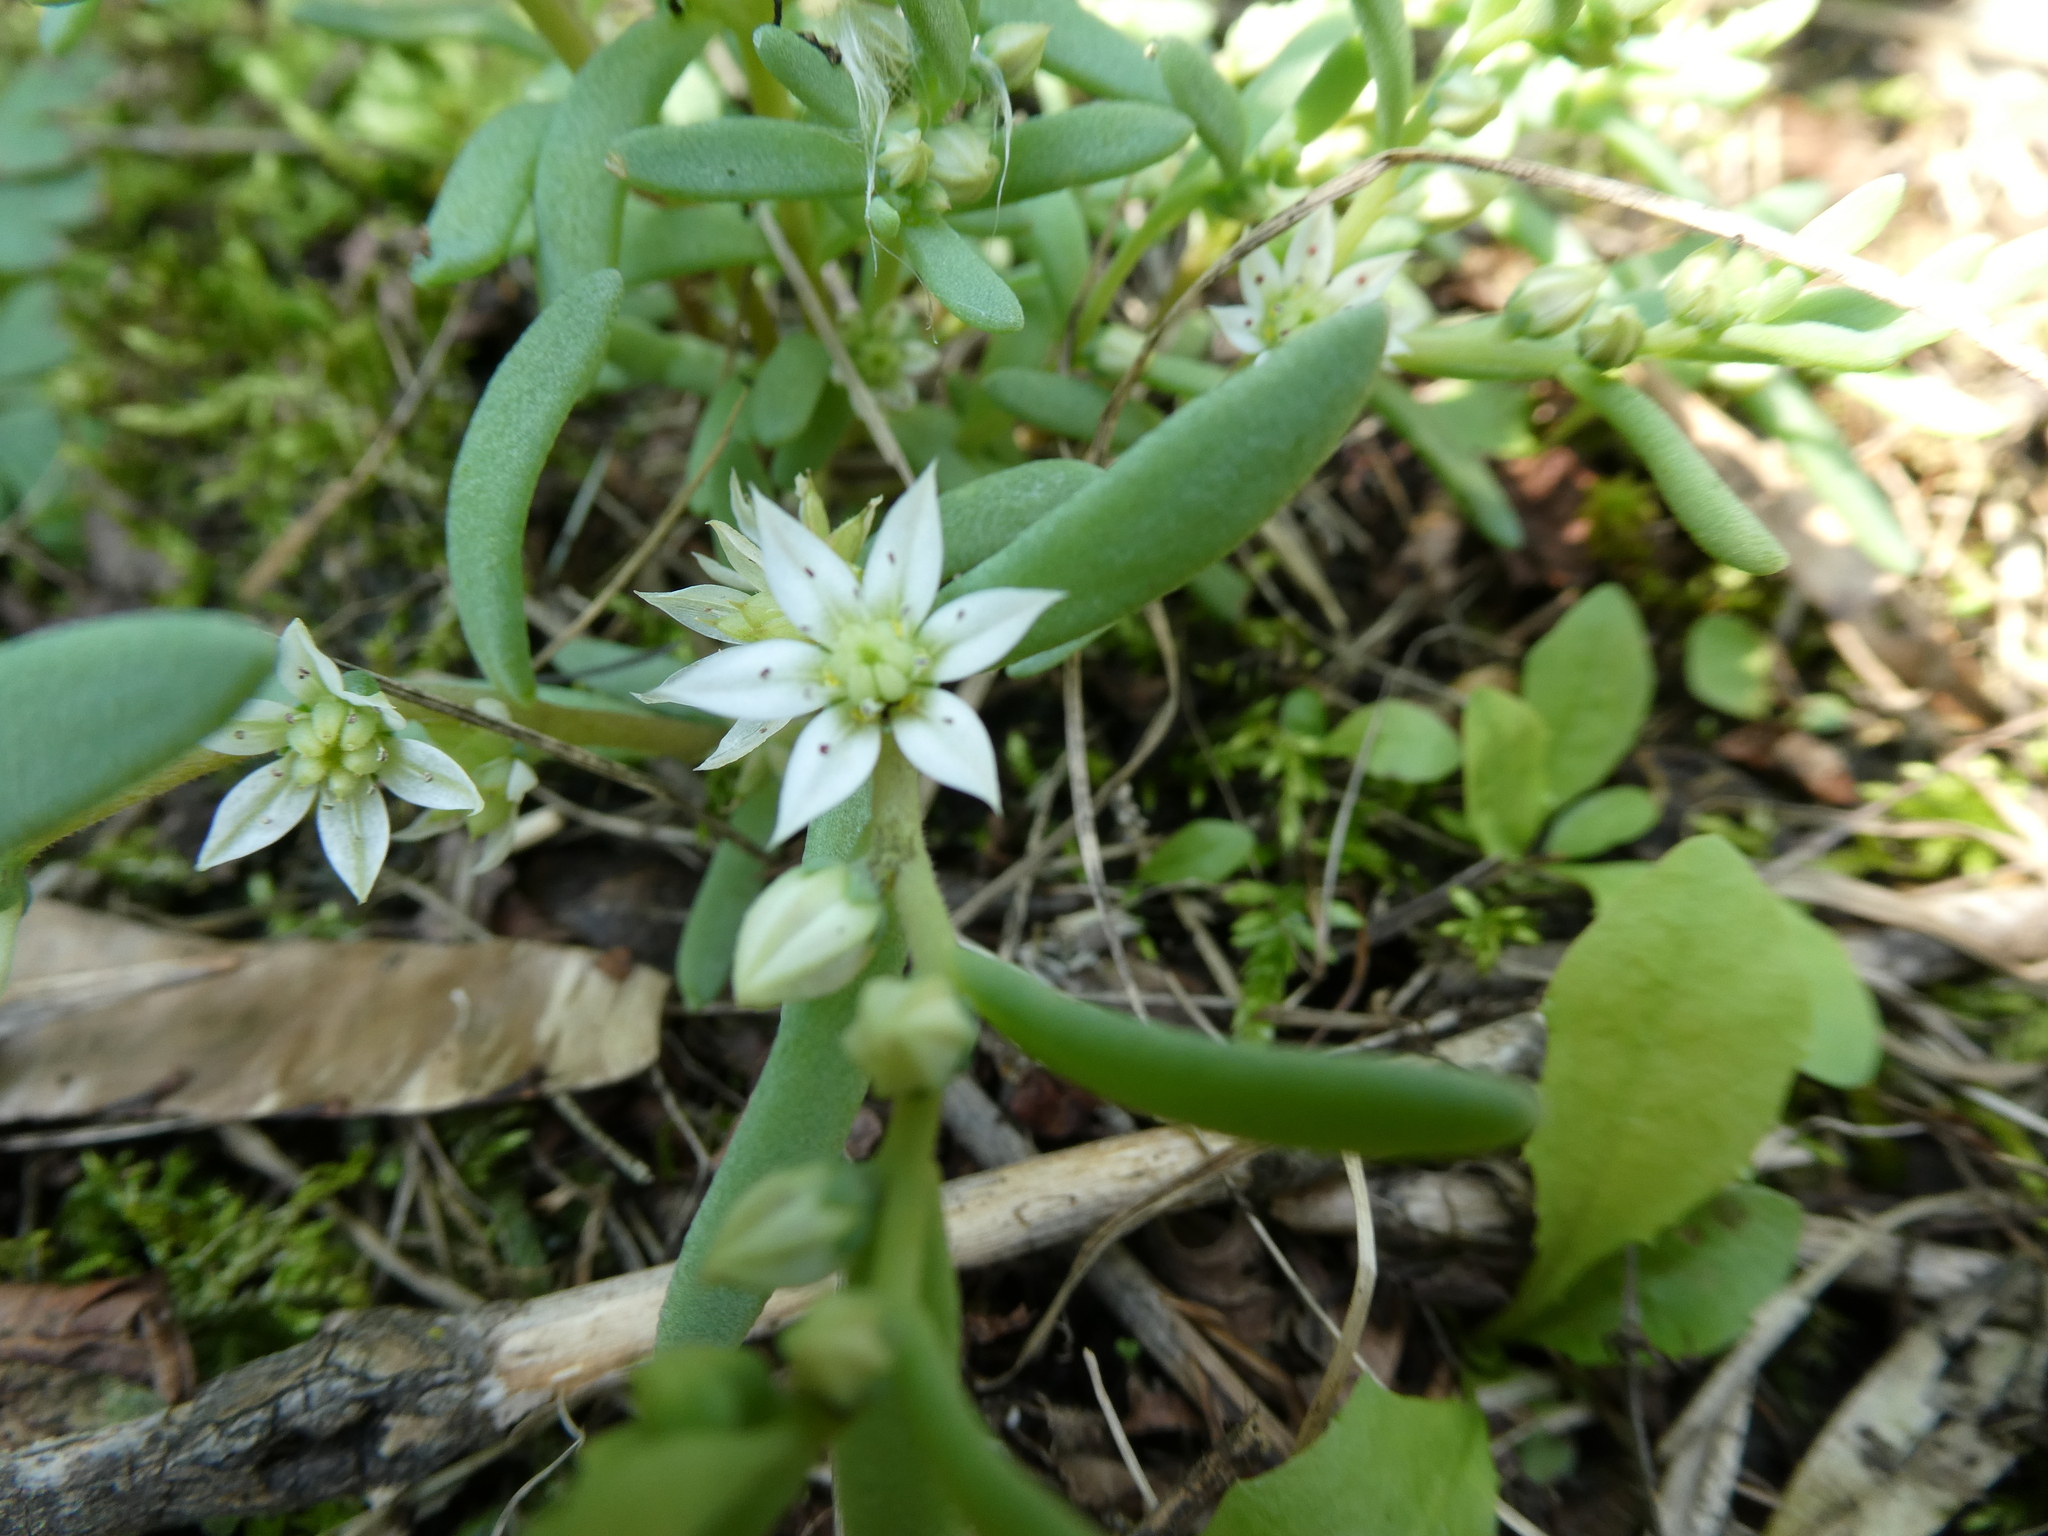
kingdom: Plantae
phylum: Tracheophyta
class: Magnoliopsida
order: Saxifragales
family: Crassulaceae
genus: Sedum
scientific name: Sedum hispanicum
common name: Spanish stonecrop
